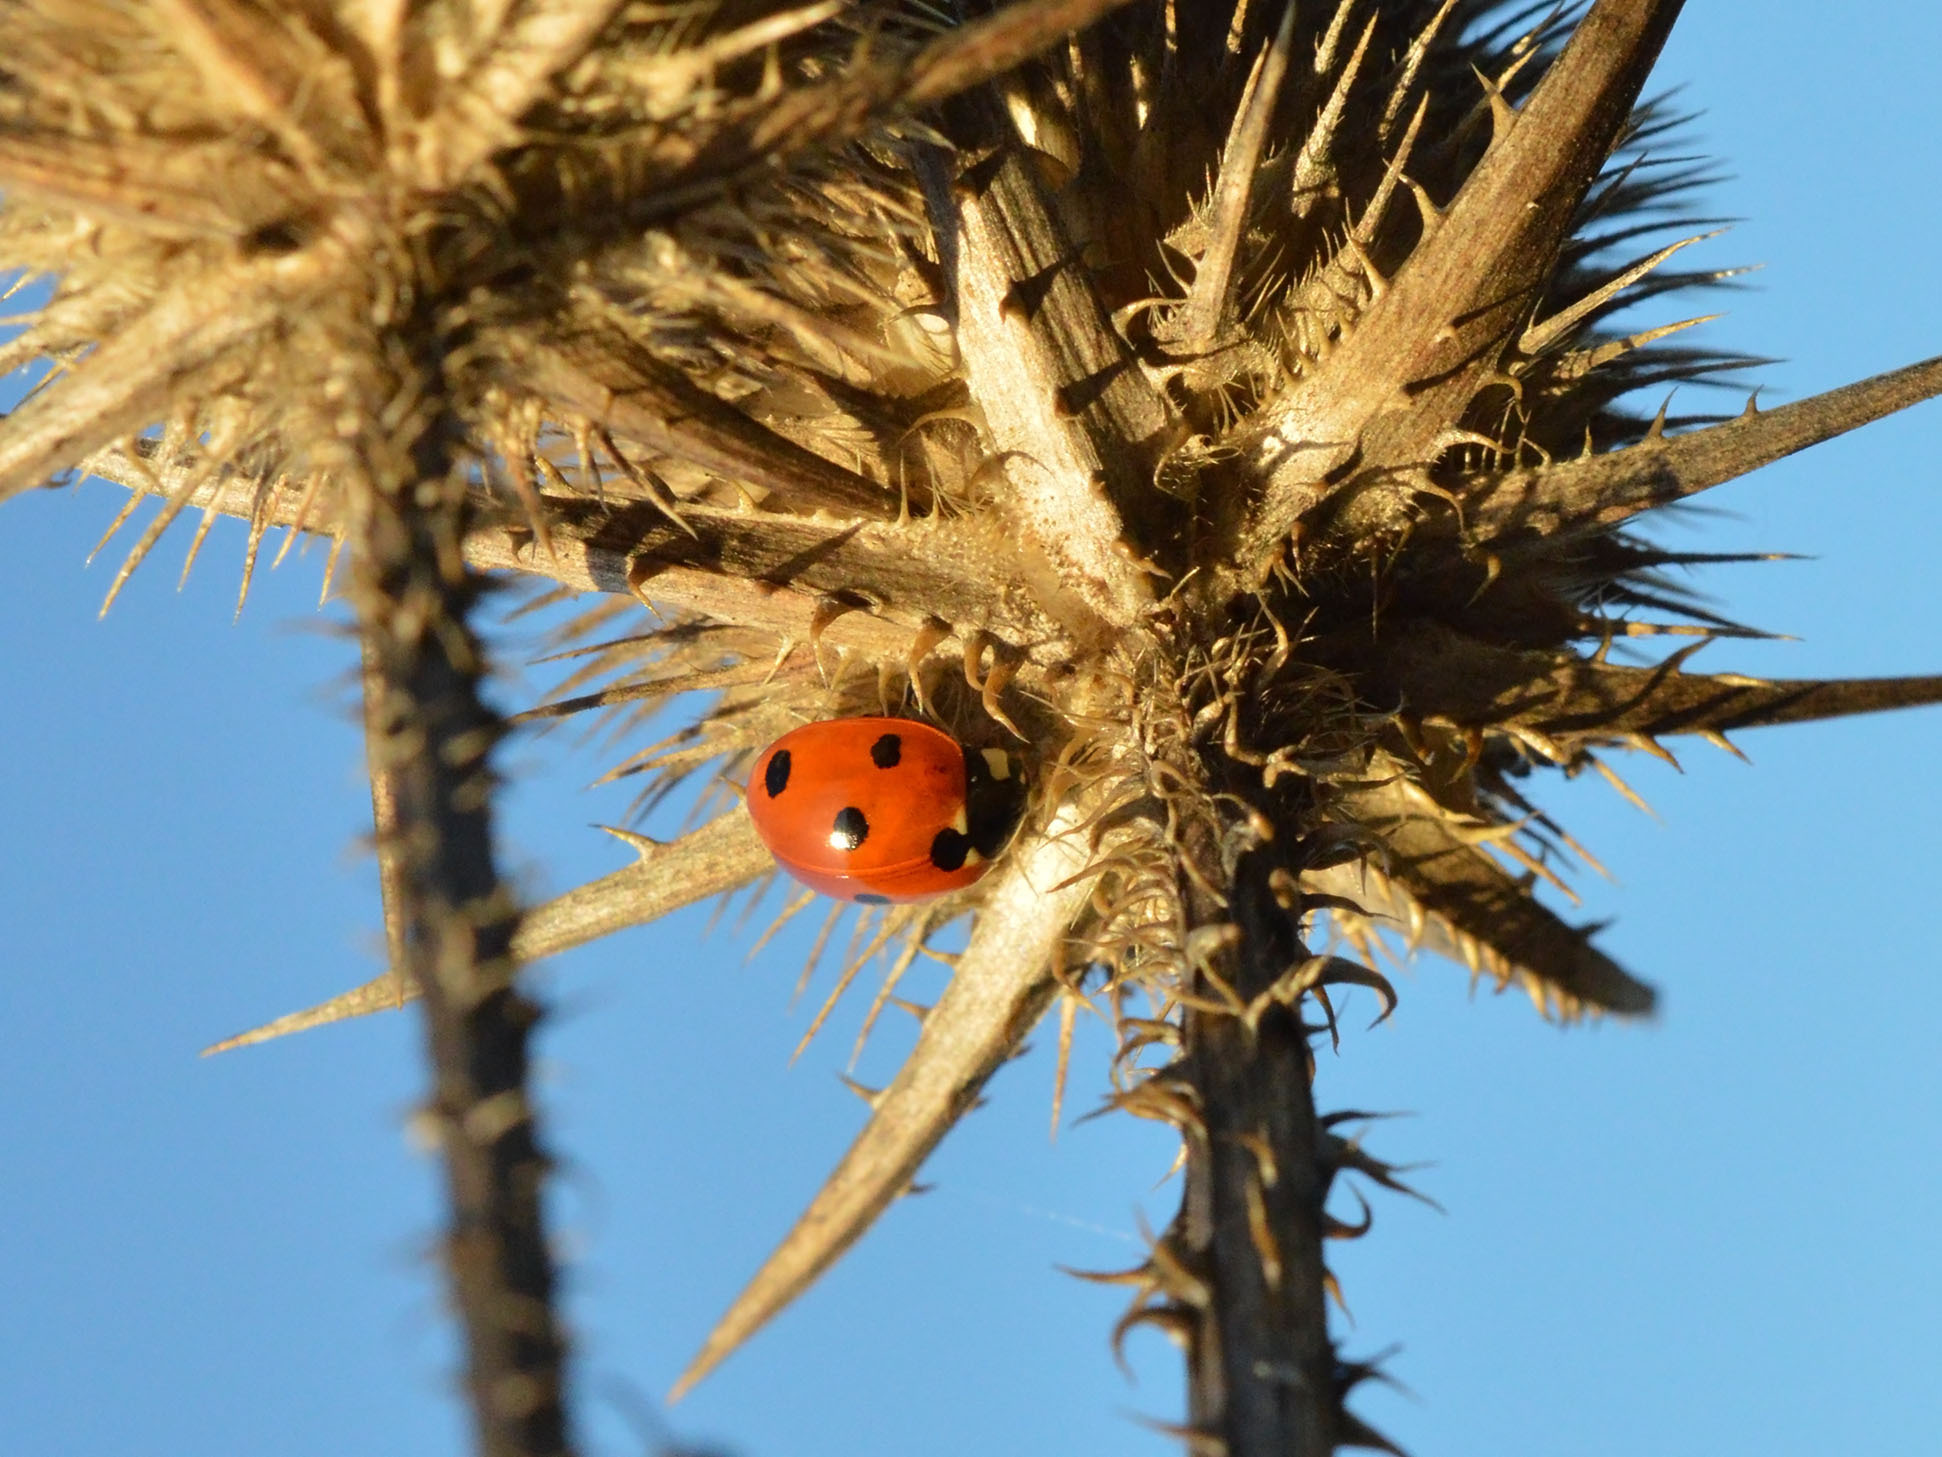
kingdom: Animalia
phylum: Arthropoda
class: Insecta
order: Coleoptera
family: Coccinellidae
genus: Coccinella
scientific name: Coccinella septempunctata
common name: Sevenspotted lady beetle
